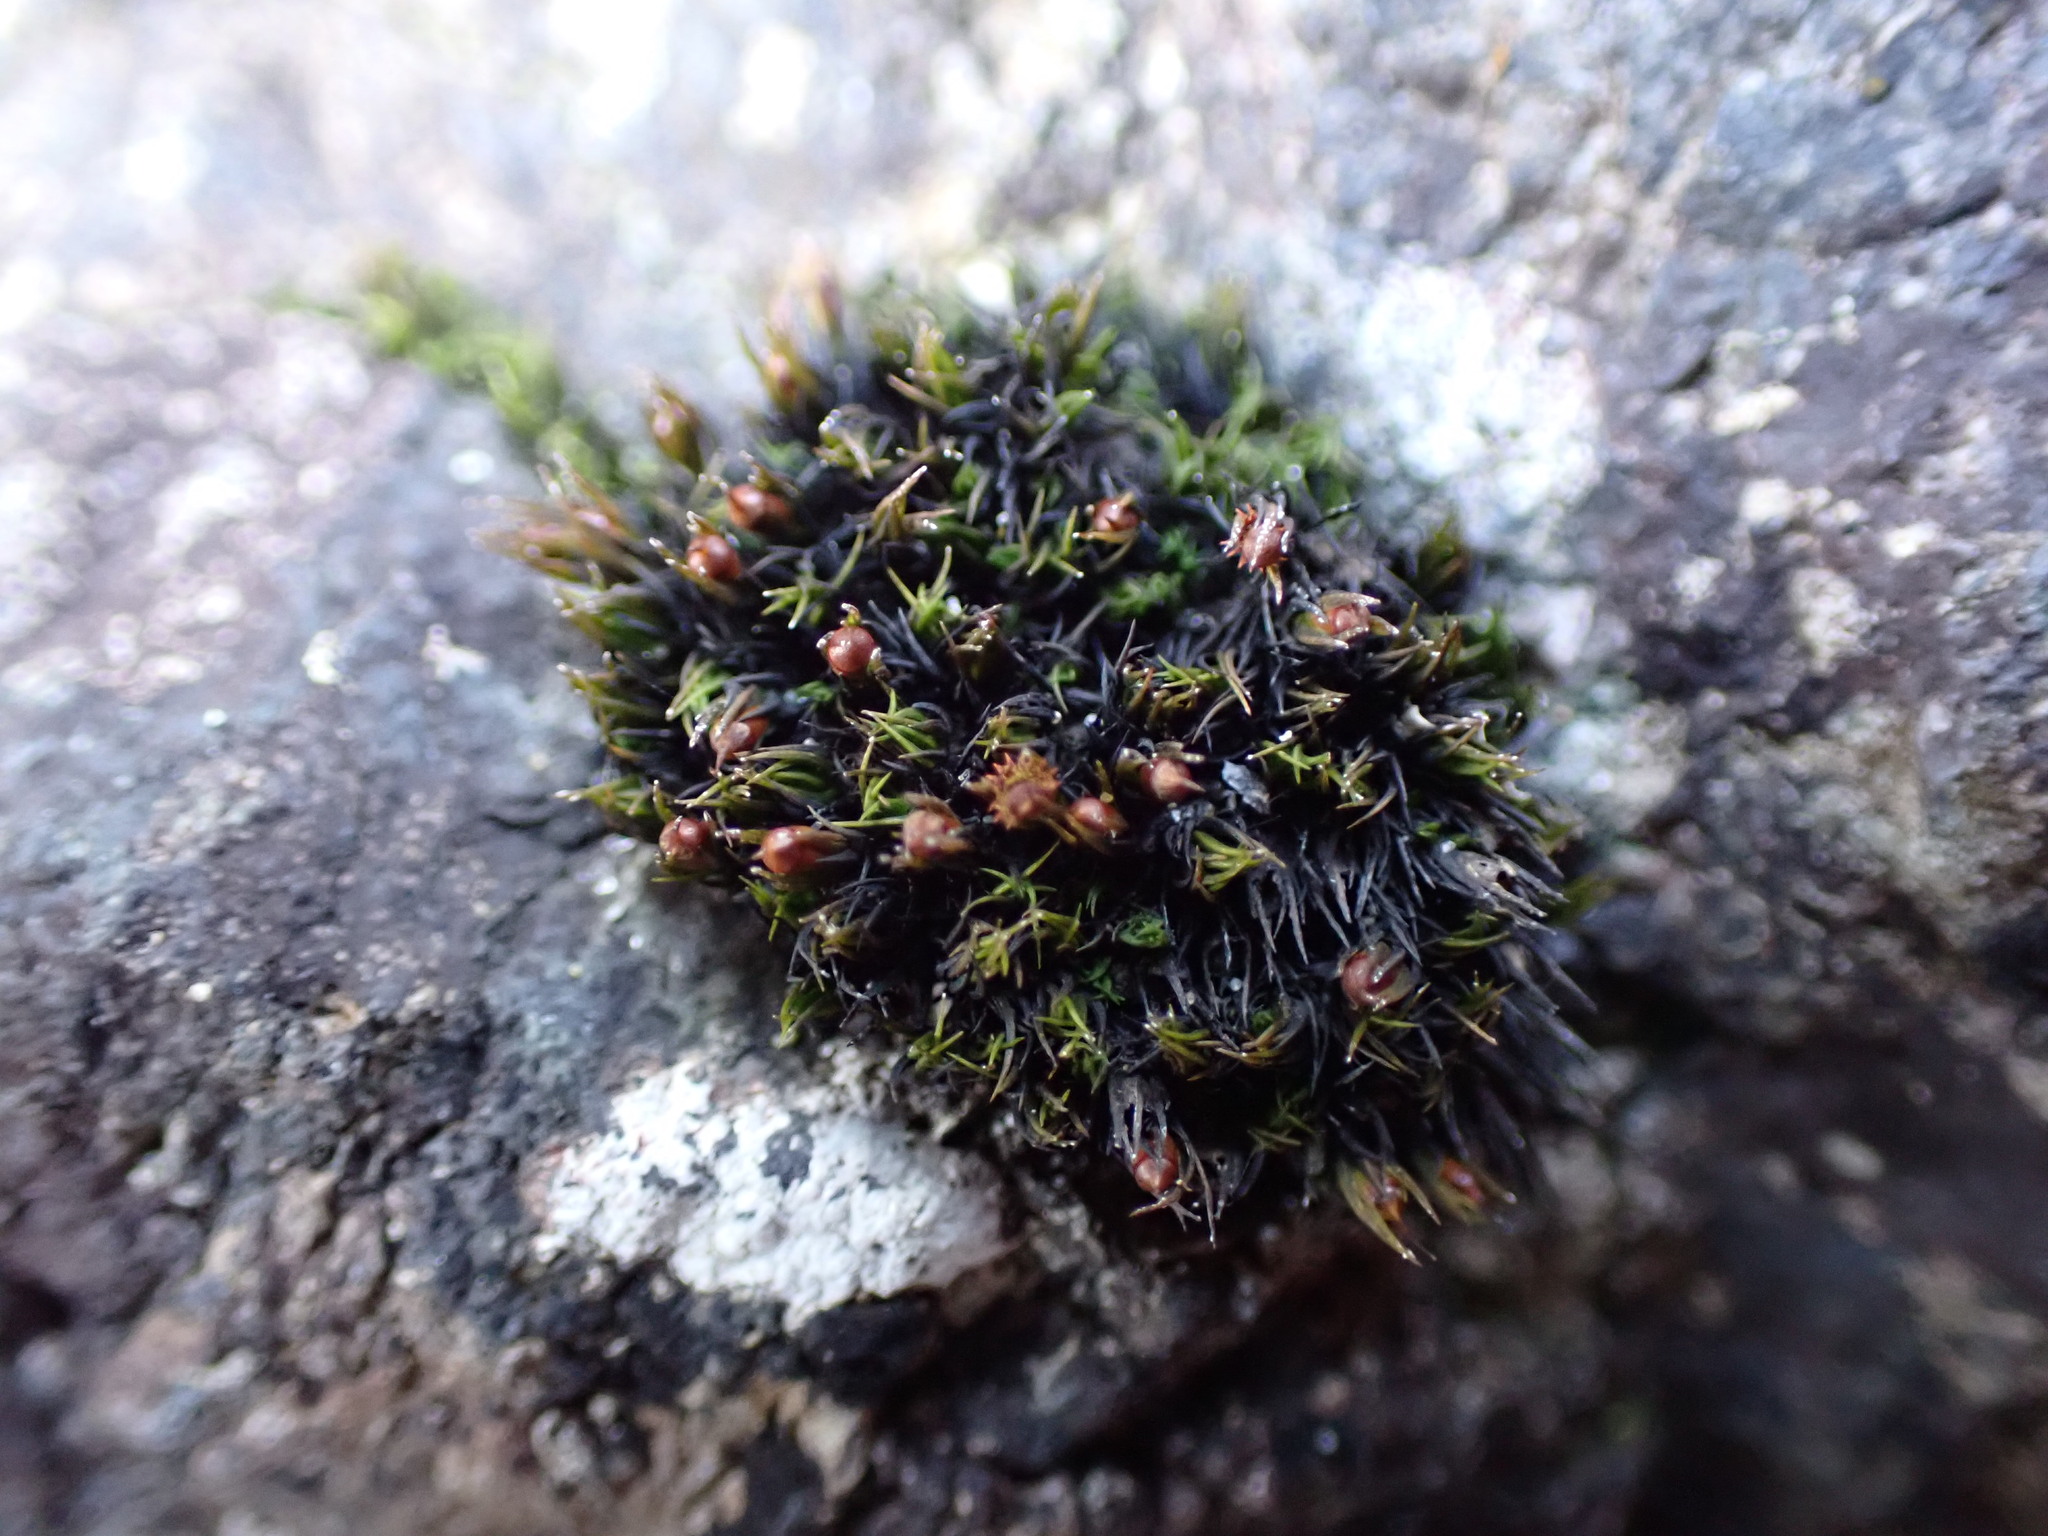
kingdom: Plantae
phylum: Bryophyta
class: Bryopsida
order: Grimmiales
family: Grimmiaceae
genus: Schistidium
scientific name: Schistidium maritimum
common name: Seaside bloom moss
